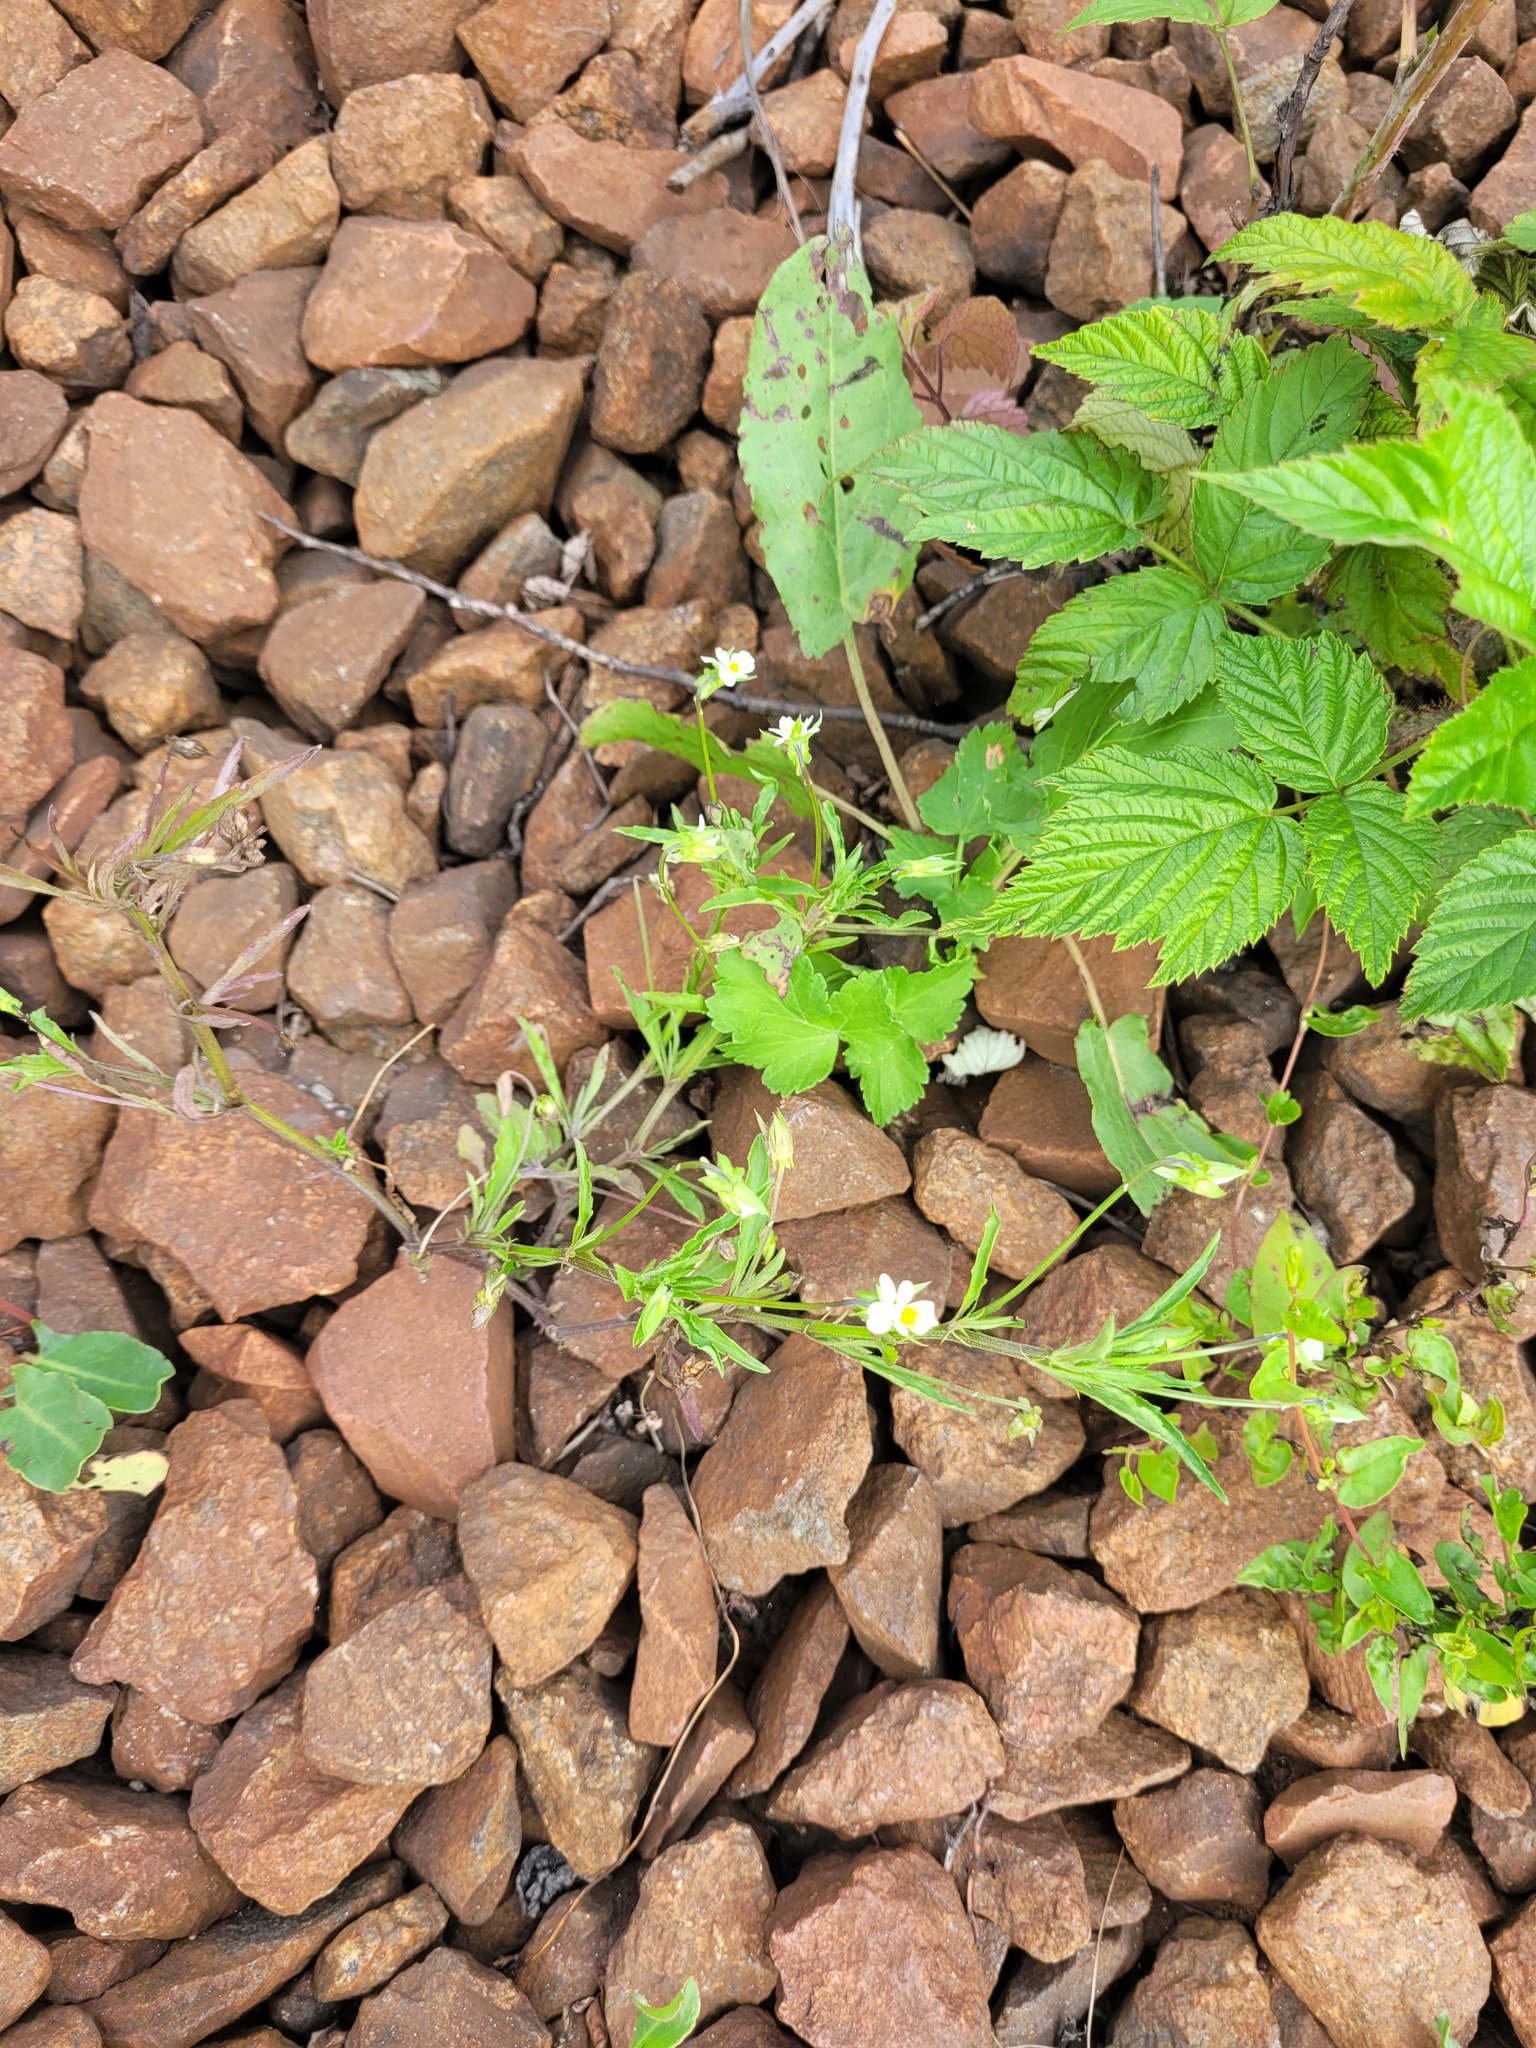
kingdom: Plantae
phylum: Tracheophyta
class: Magnoliopsida
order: Malpighiales
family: Violaceae
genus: Viola
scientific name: Viola arvensis
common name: Field pansy
